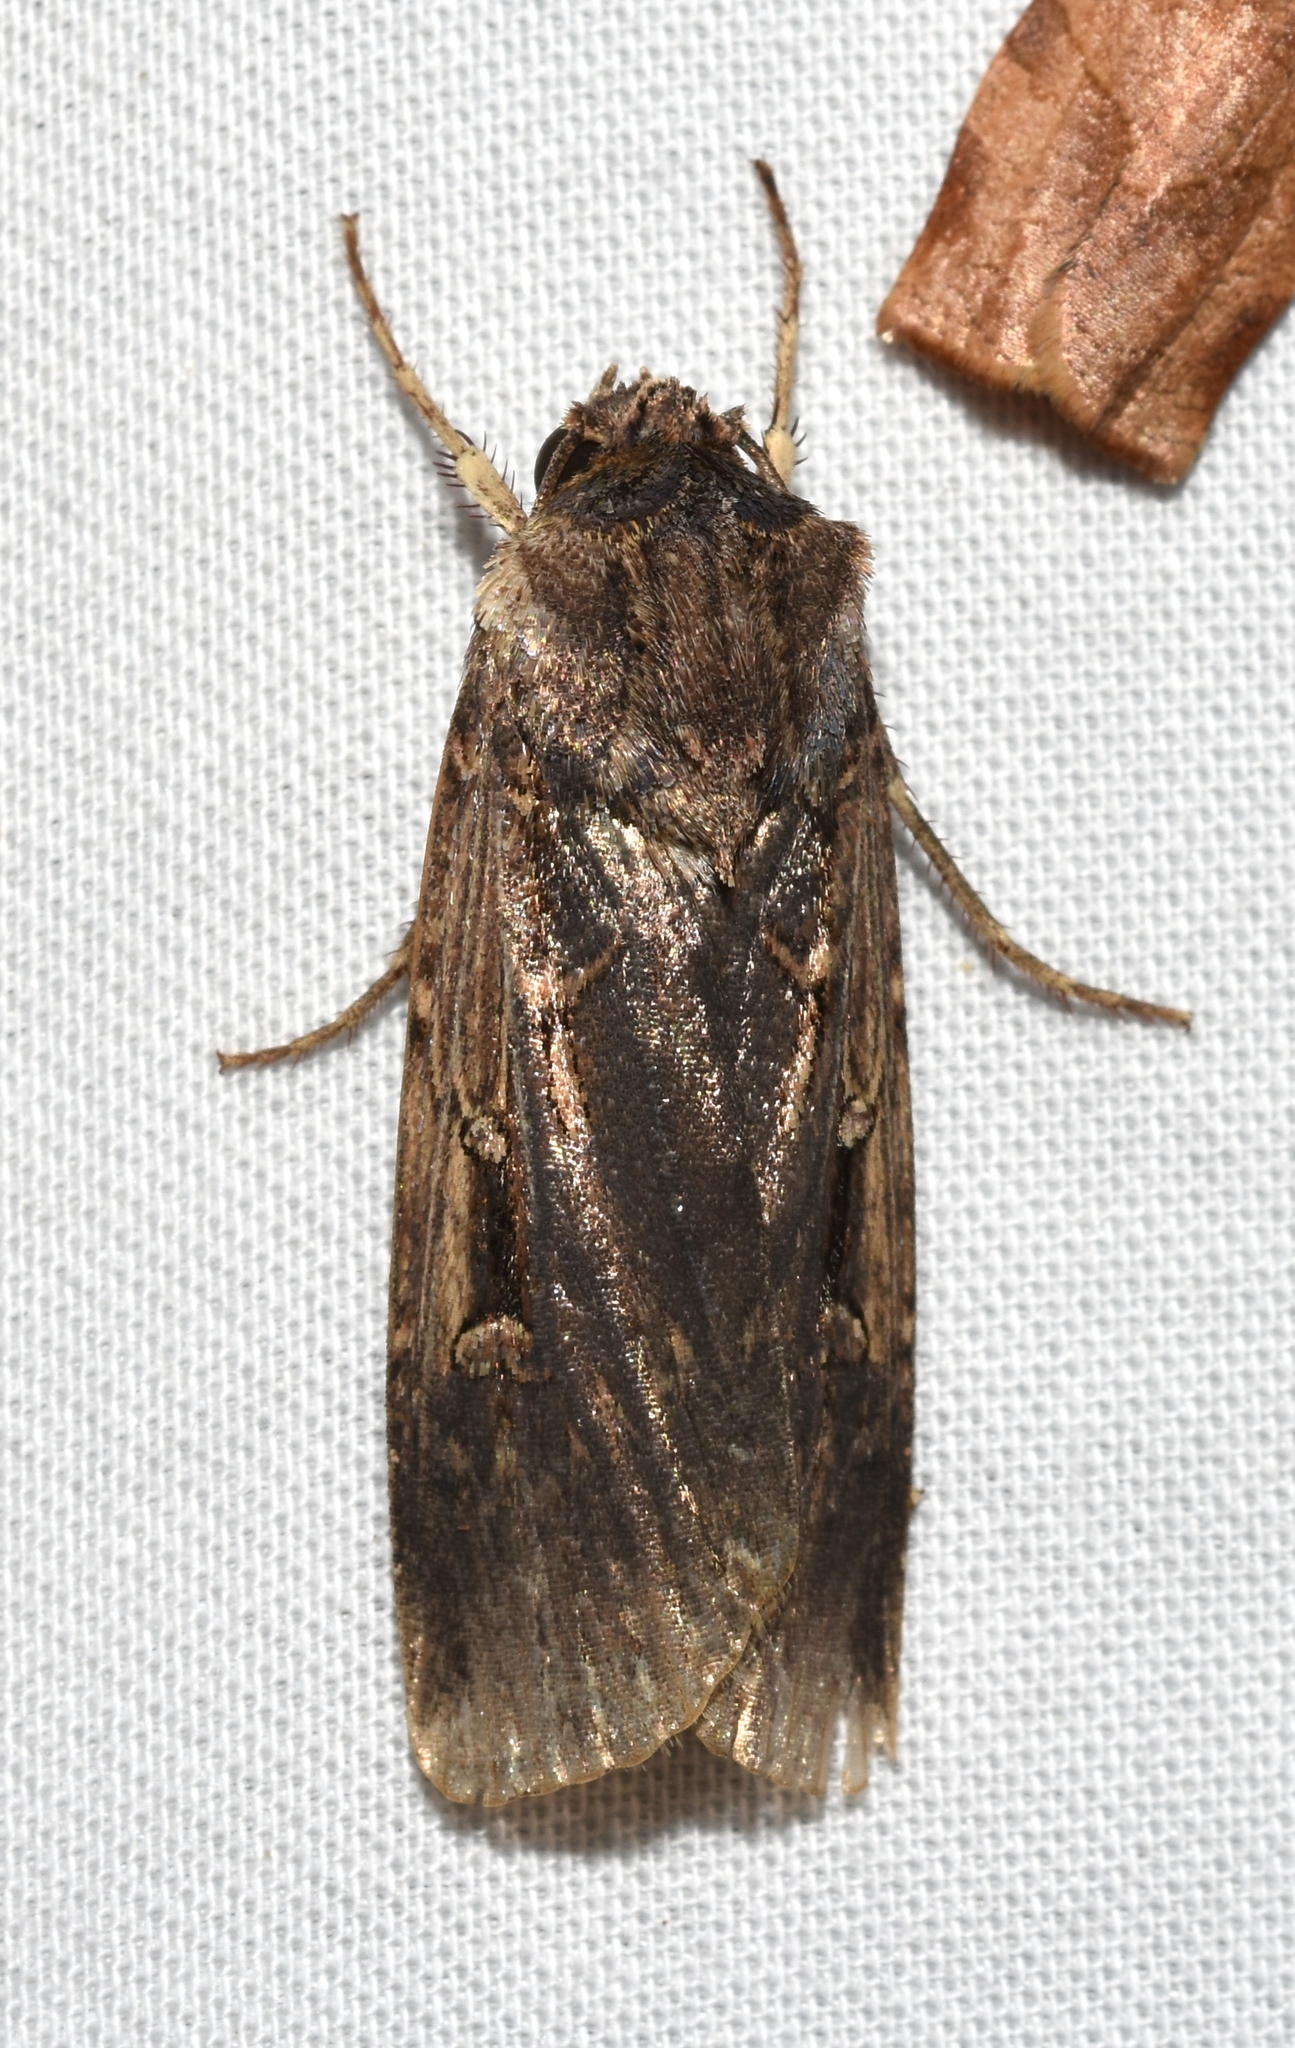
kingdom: Animalia
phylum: Arthropoda
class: Insecta
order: Lepidoptera
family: Noctuidae
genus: Feltia
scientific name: Feltia subterranea
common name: Granulate cutworm
